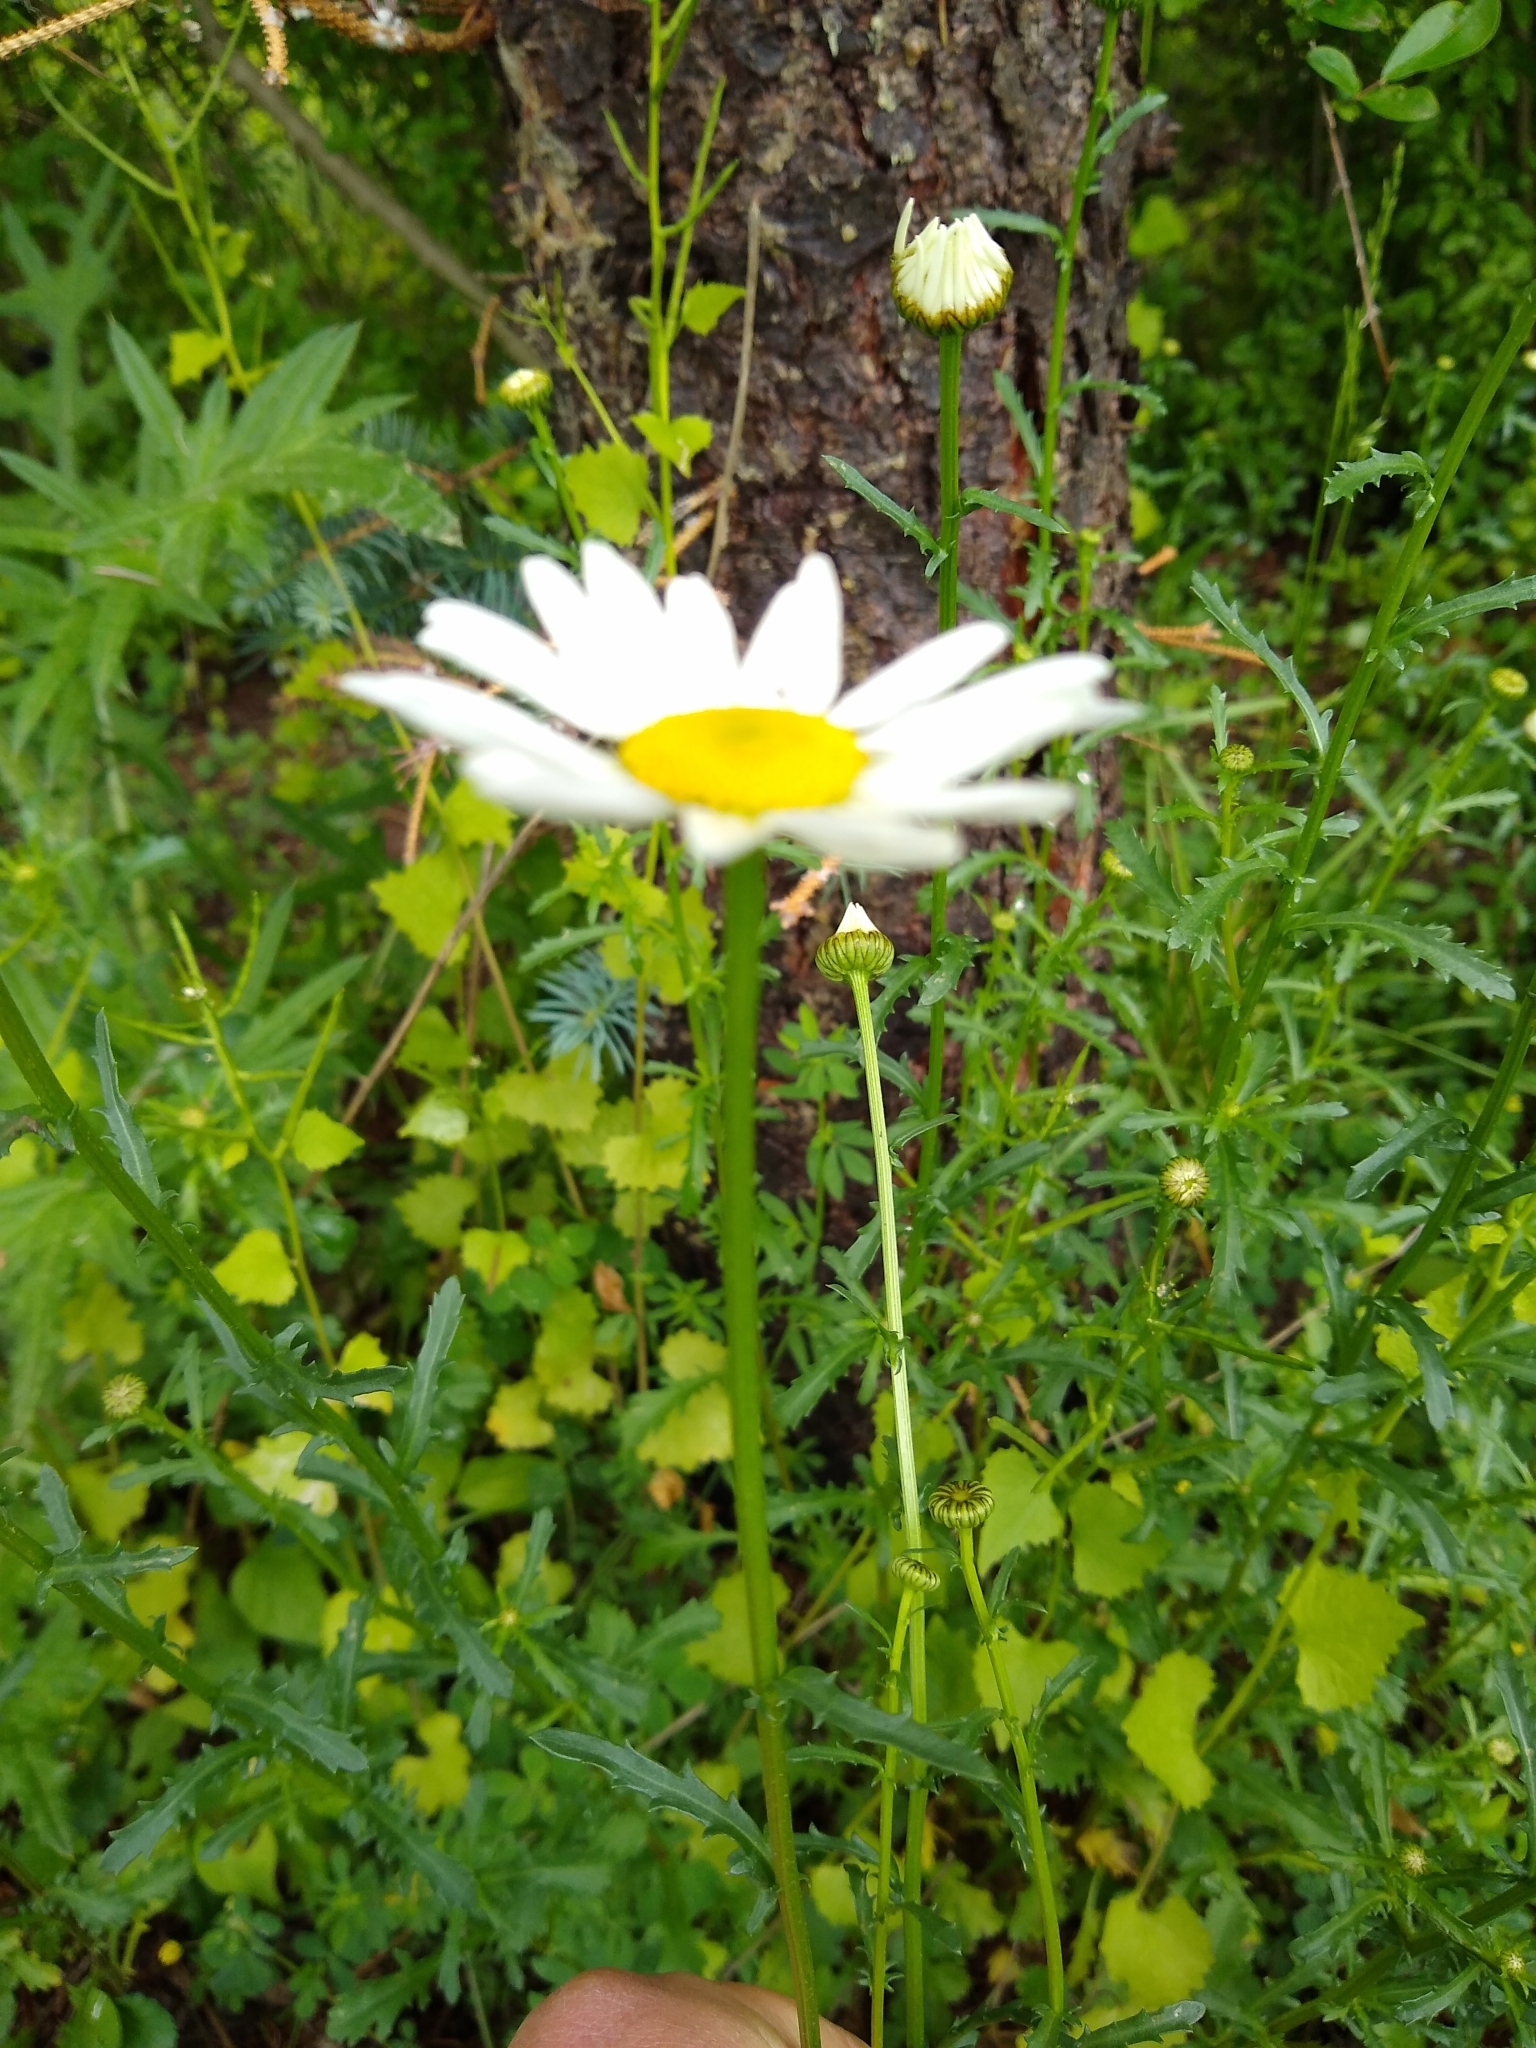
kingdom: Plantae
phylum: Tracheophyta
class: Magnoliopsida
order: Asterales
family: Asteraceae
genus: Leucanthemum
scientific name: Leucanthemum vulgare
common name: Oxeye daisy
